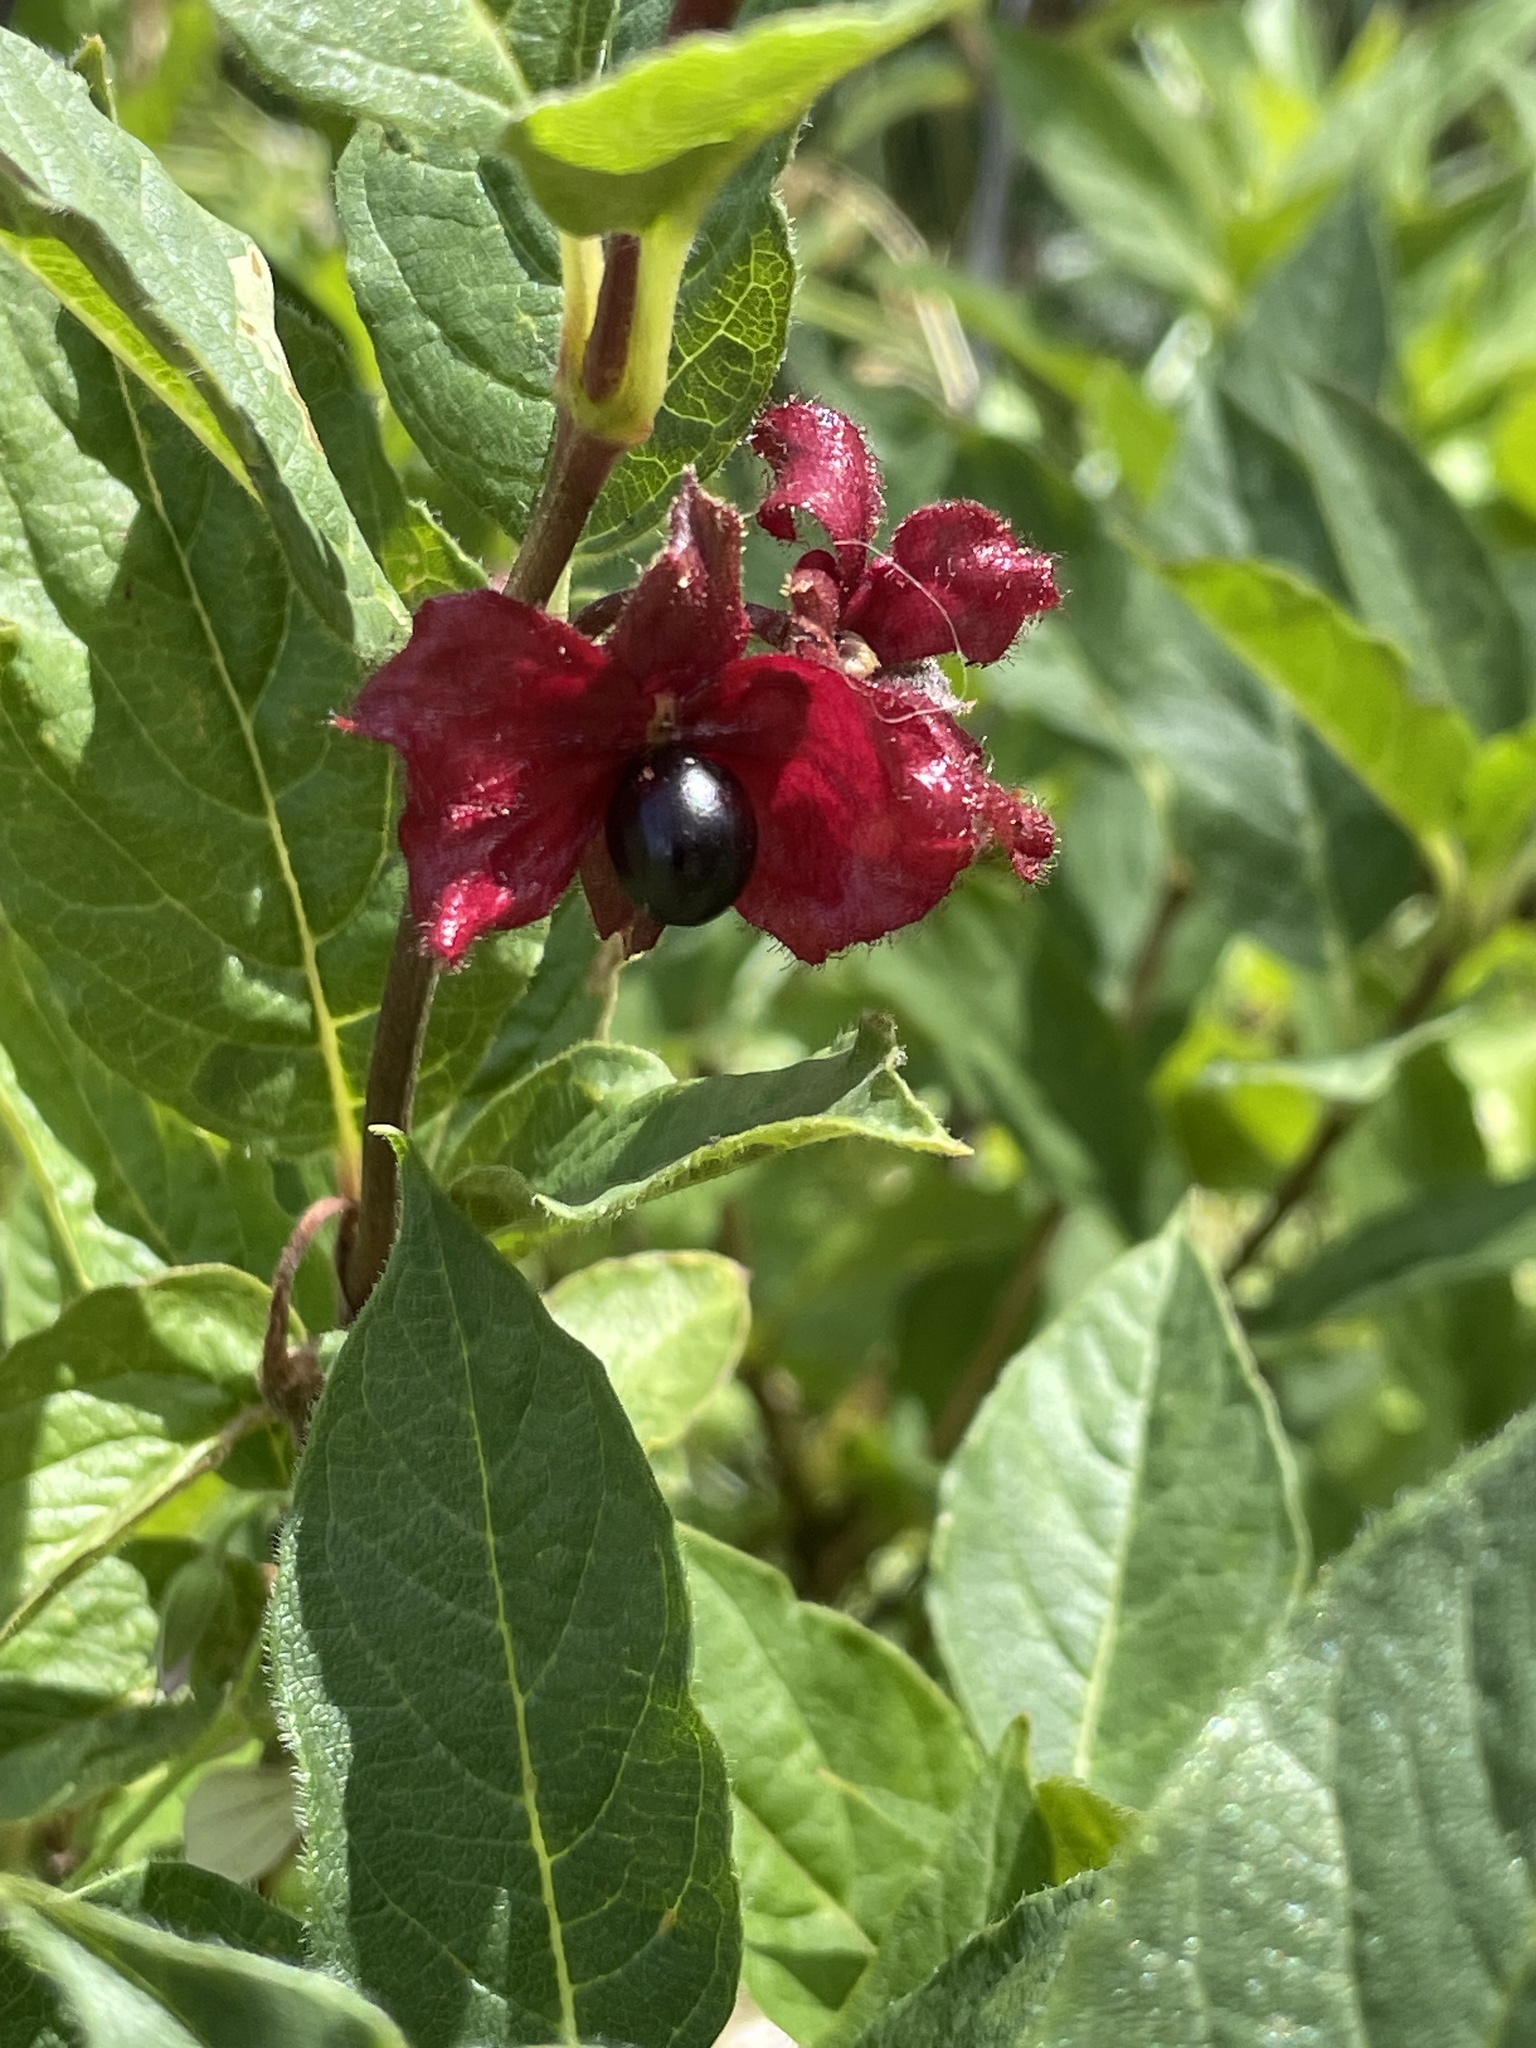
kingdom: Plantae
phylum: Tracheophyta
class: Magnoliopsida
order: Dipsacales
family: Caprifoliaceae
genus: Lonicera
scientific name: Lonicera involucrata
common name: Californian honeysuckle
